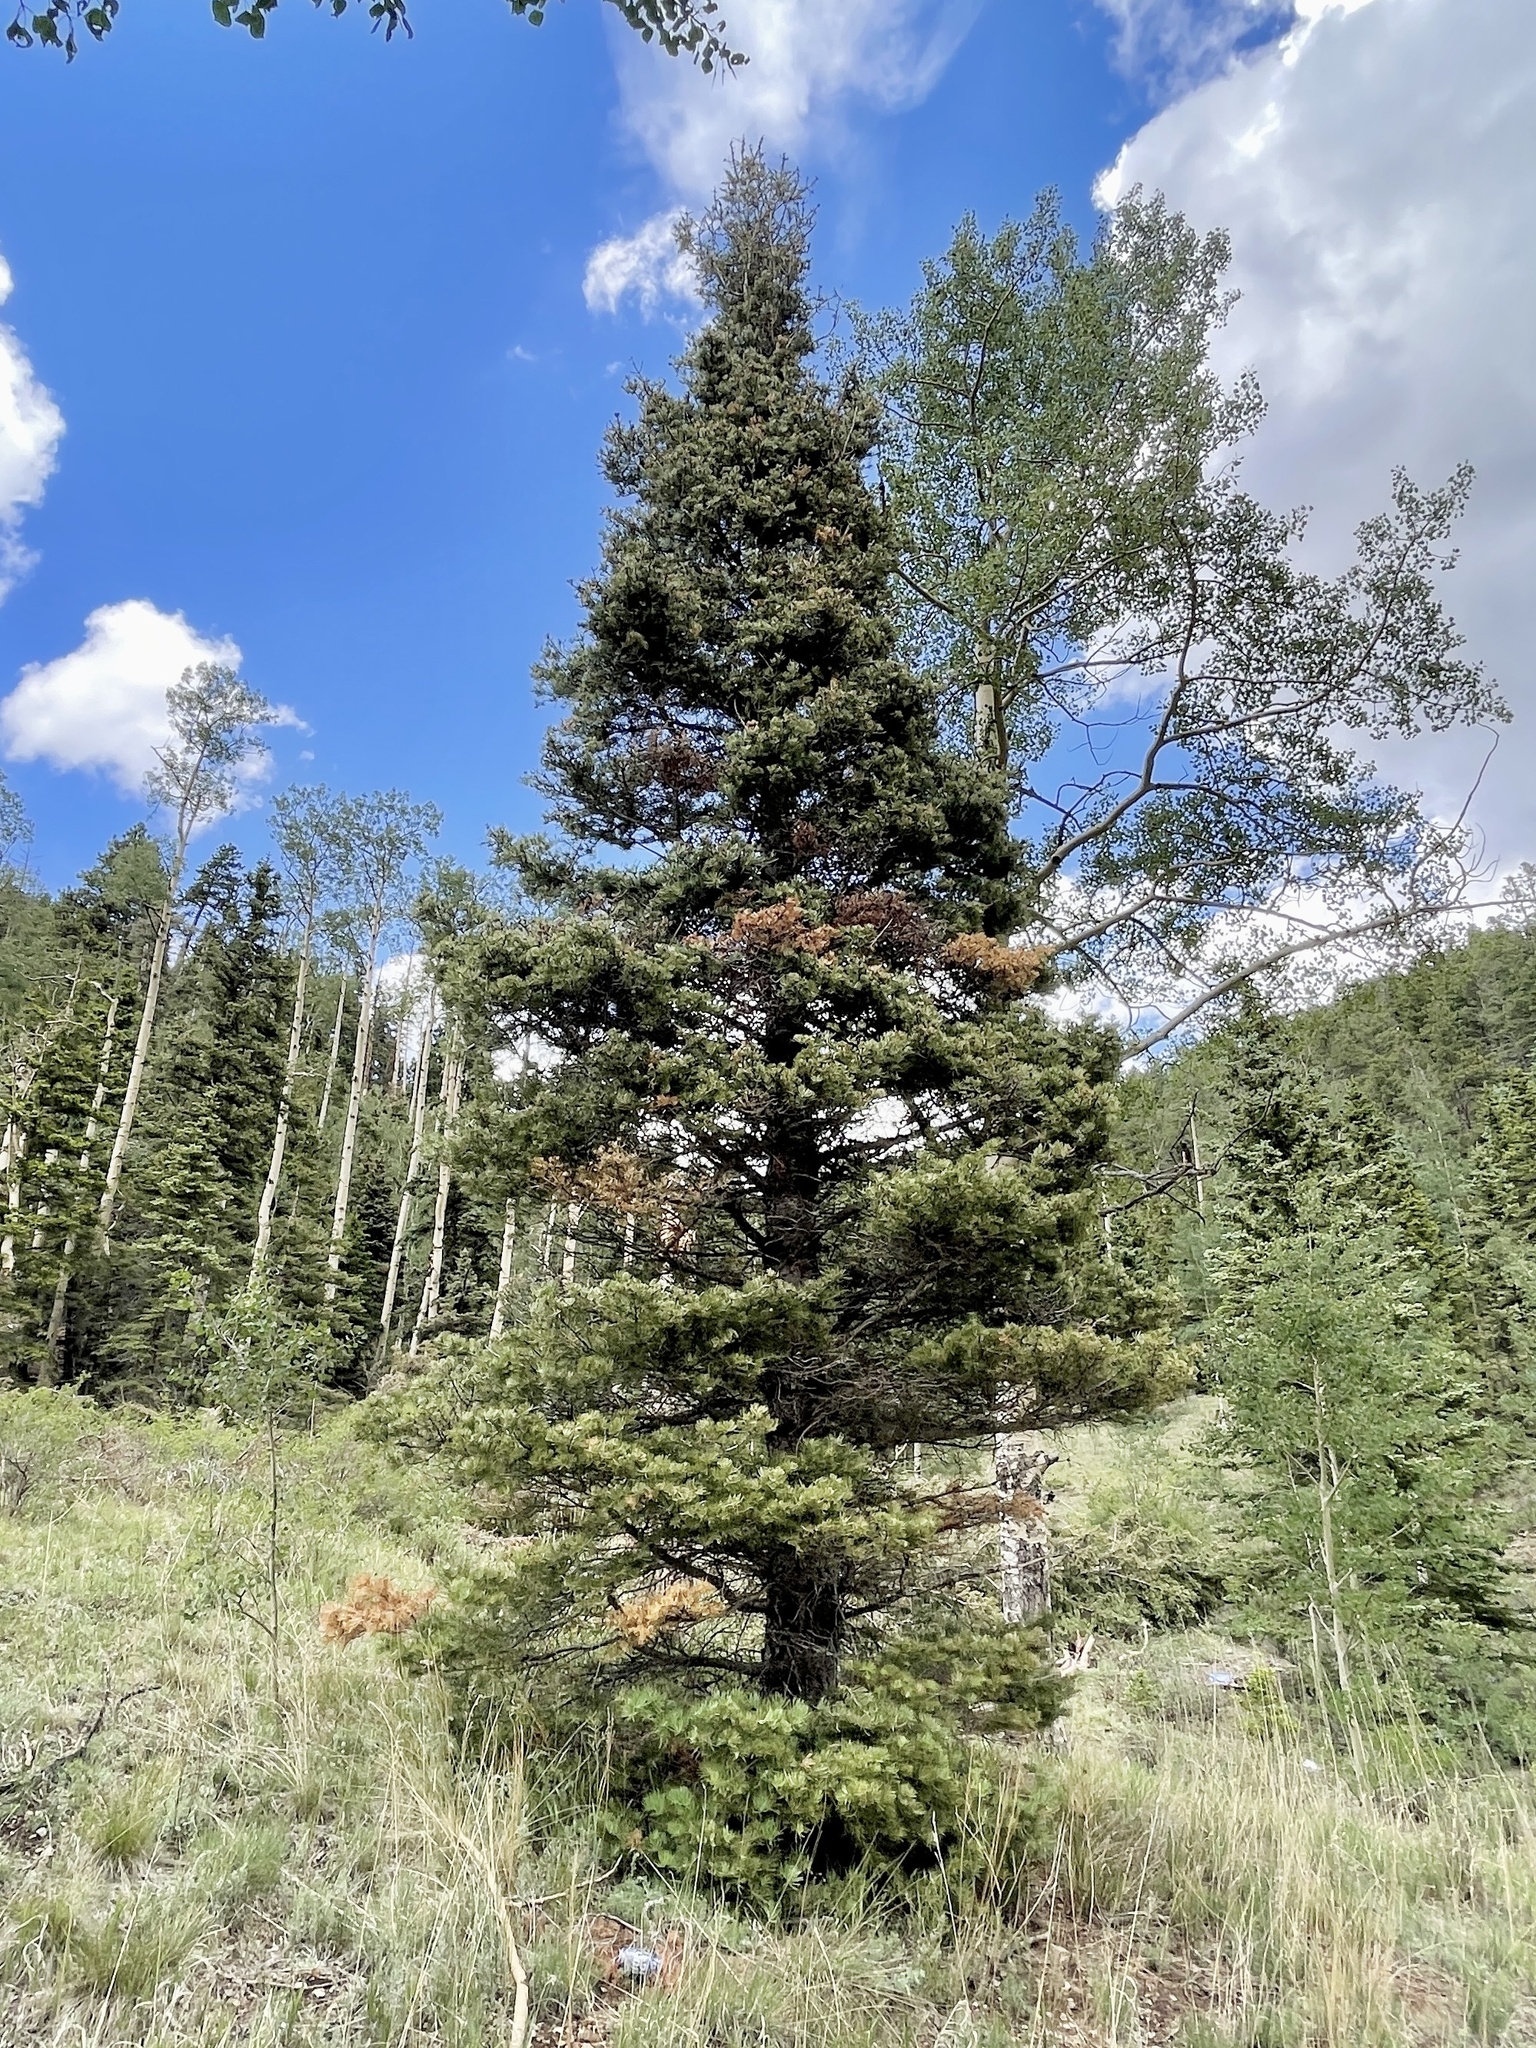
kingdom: Plantae
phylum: Tracheophyta
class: Pinopsida
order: Pinales
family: Pinaceae
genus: Abies
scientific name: Abies concolor
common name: Colorado fir
